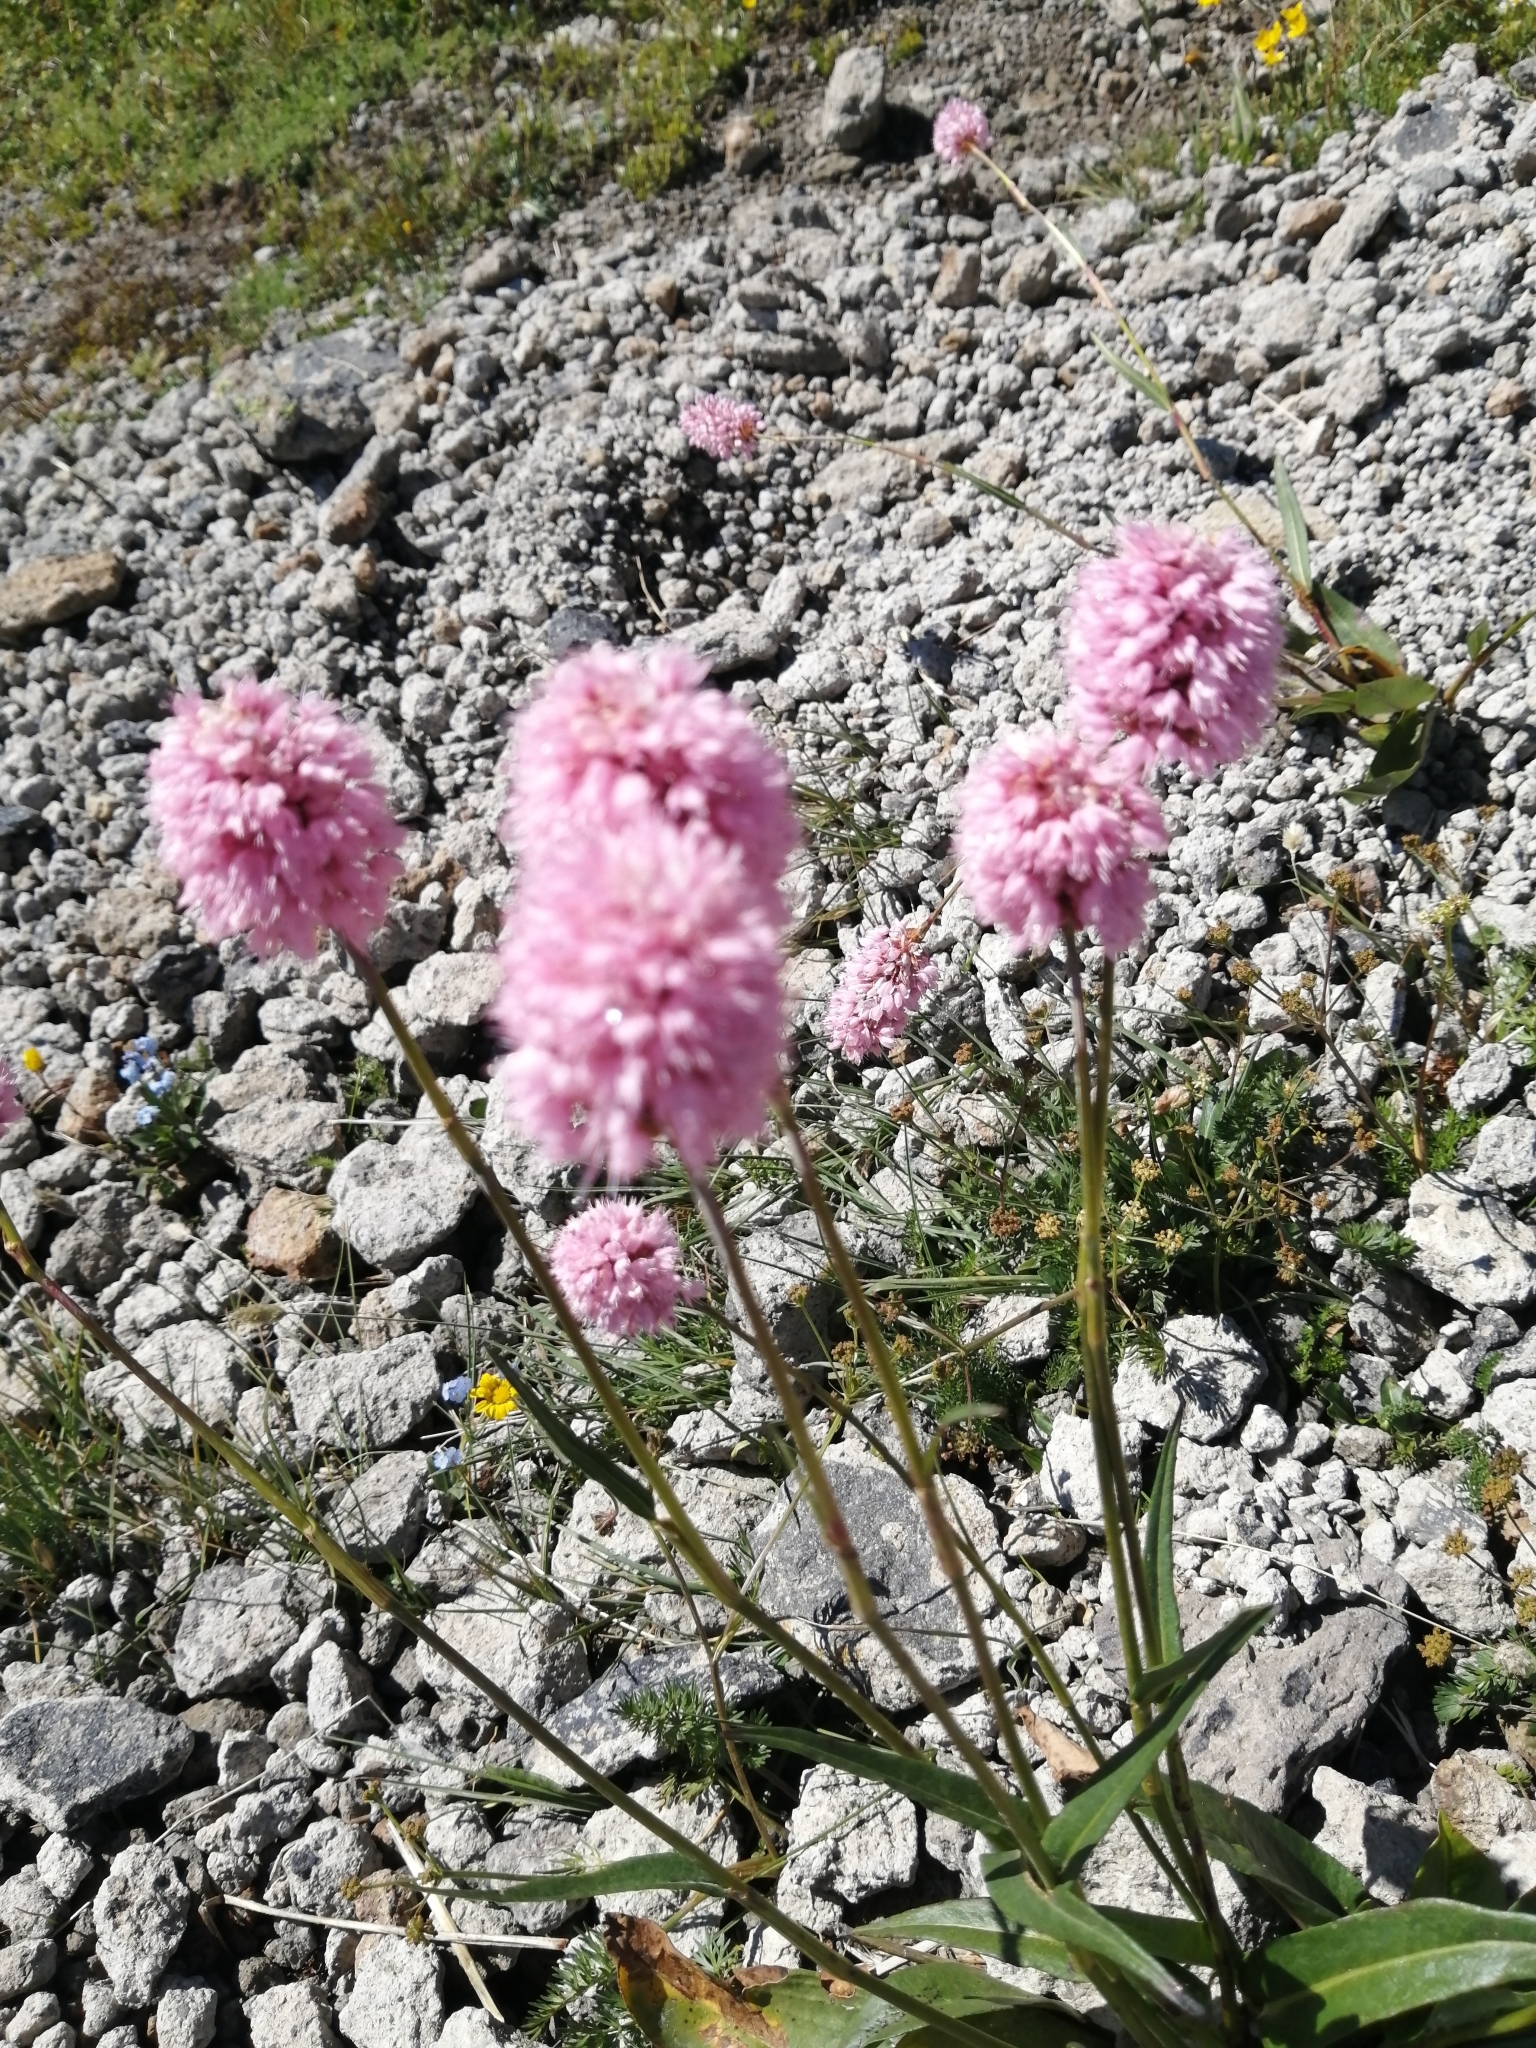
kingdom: Plantae
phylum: Tracheophyta
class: Magnoliopsida
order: Caryophyllales
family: Polygonaceae
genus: Bistorta
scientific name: Bistorta carnea
